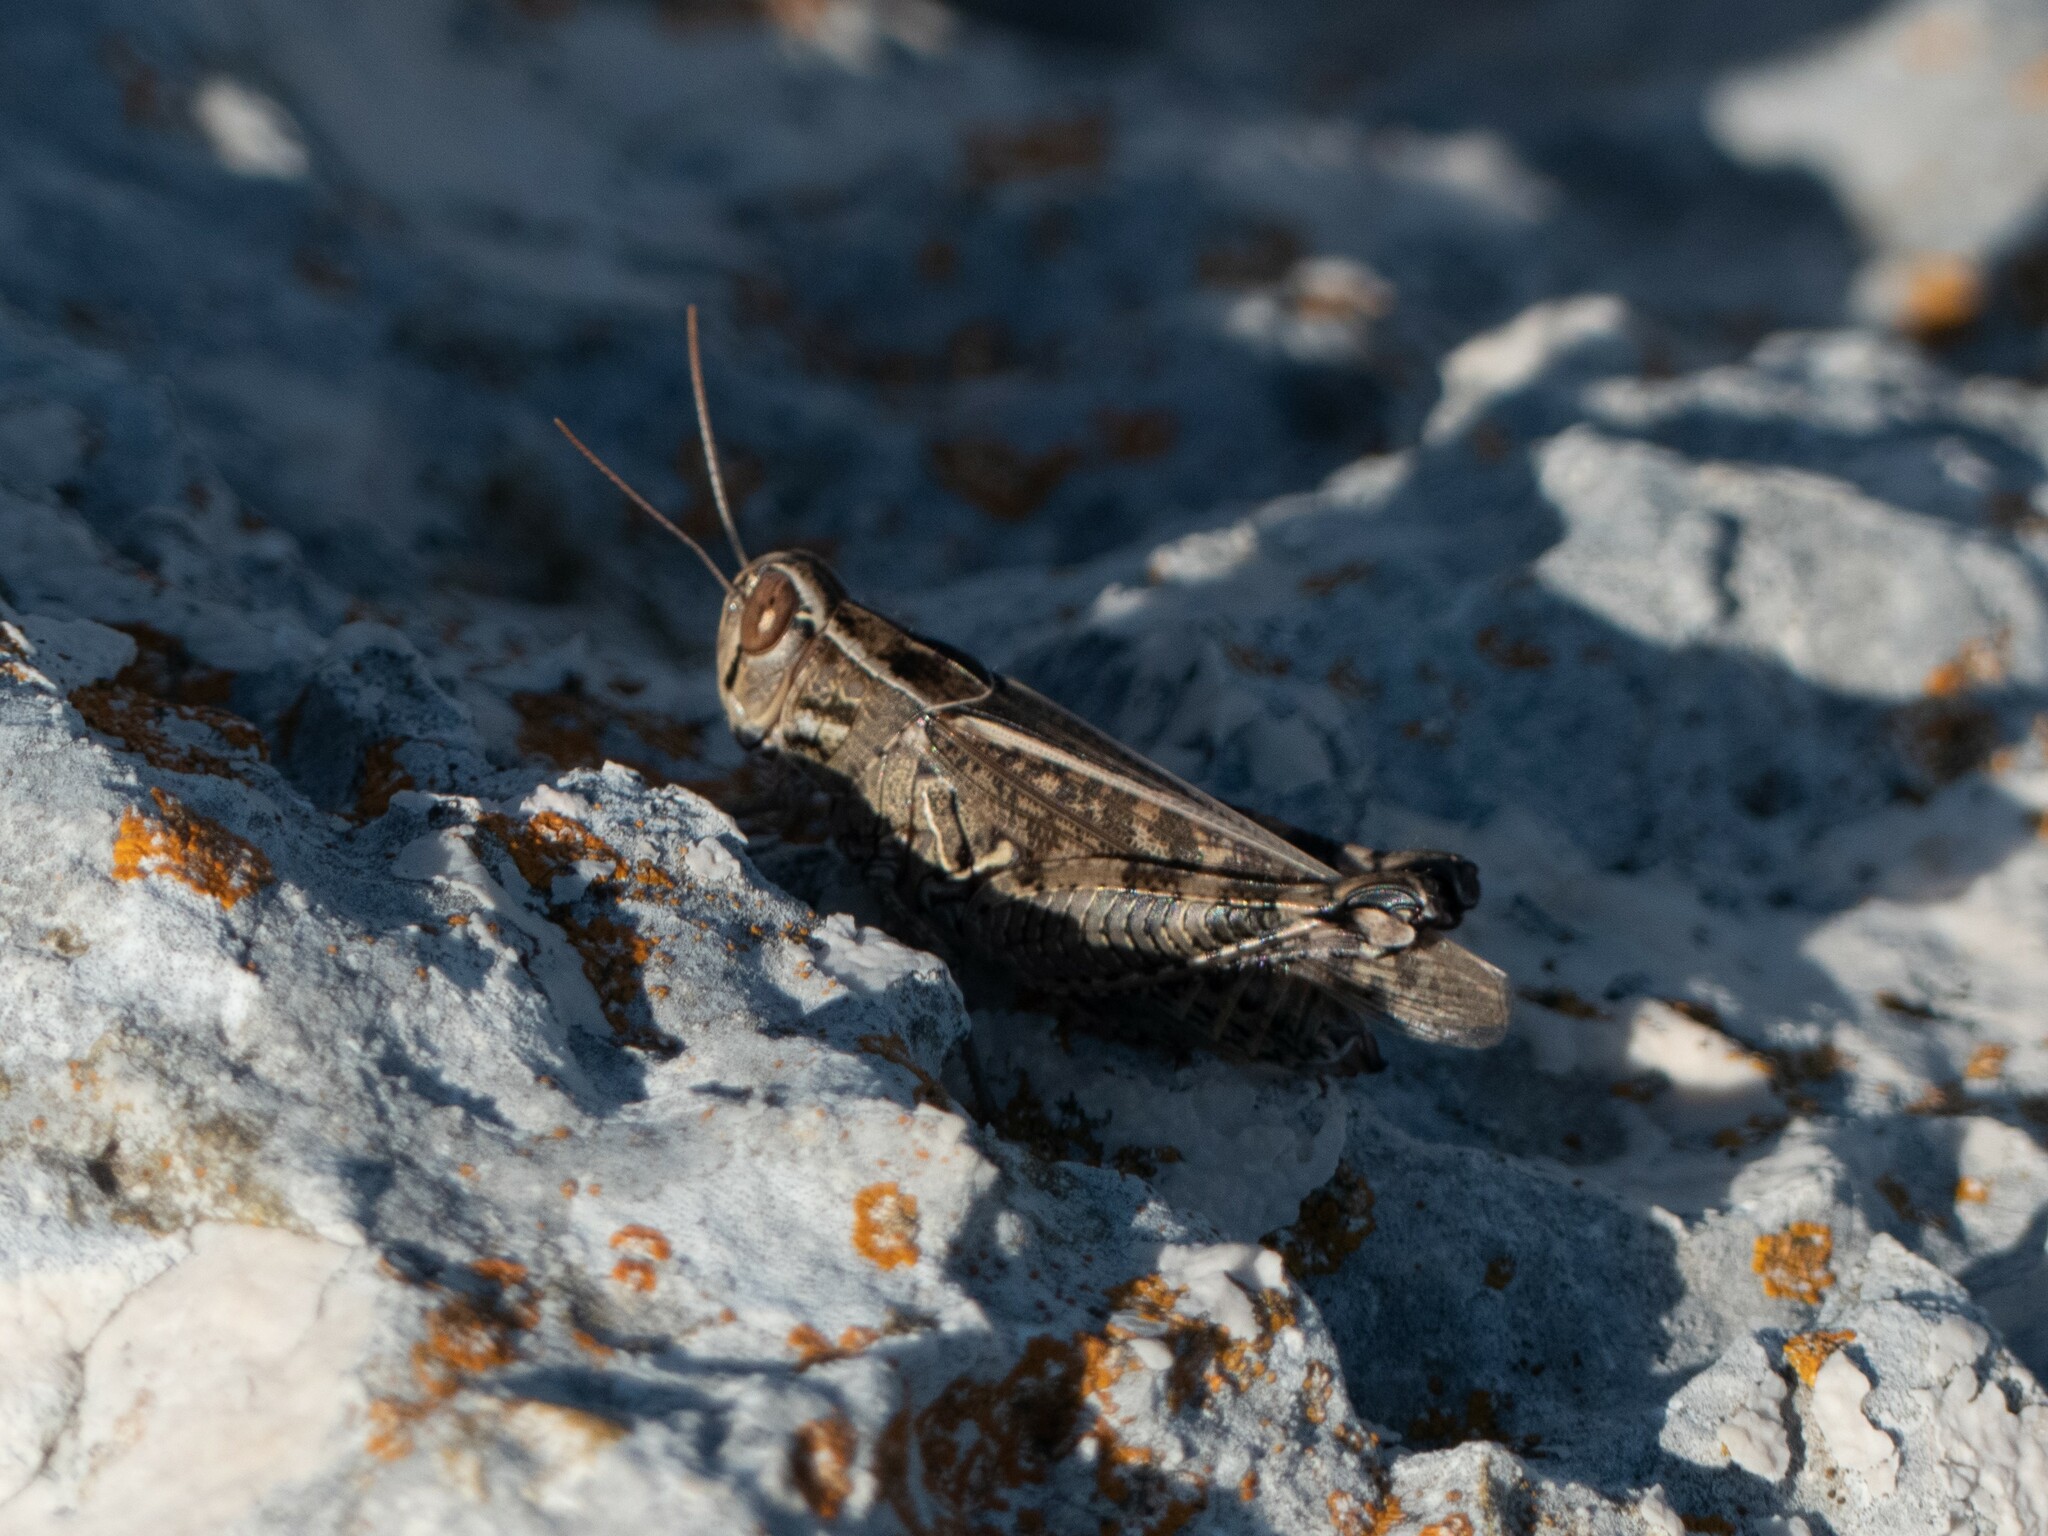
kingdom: Animalia
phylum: Arthropoda
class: Insecta
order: Orthoptera
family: Acrididae
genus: Calliptamus
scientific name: Calliptamus italicus
